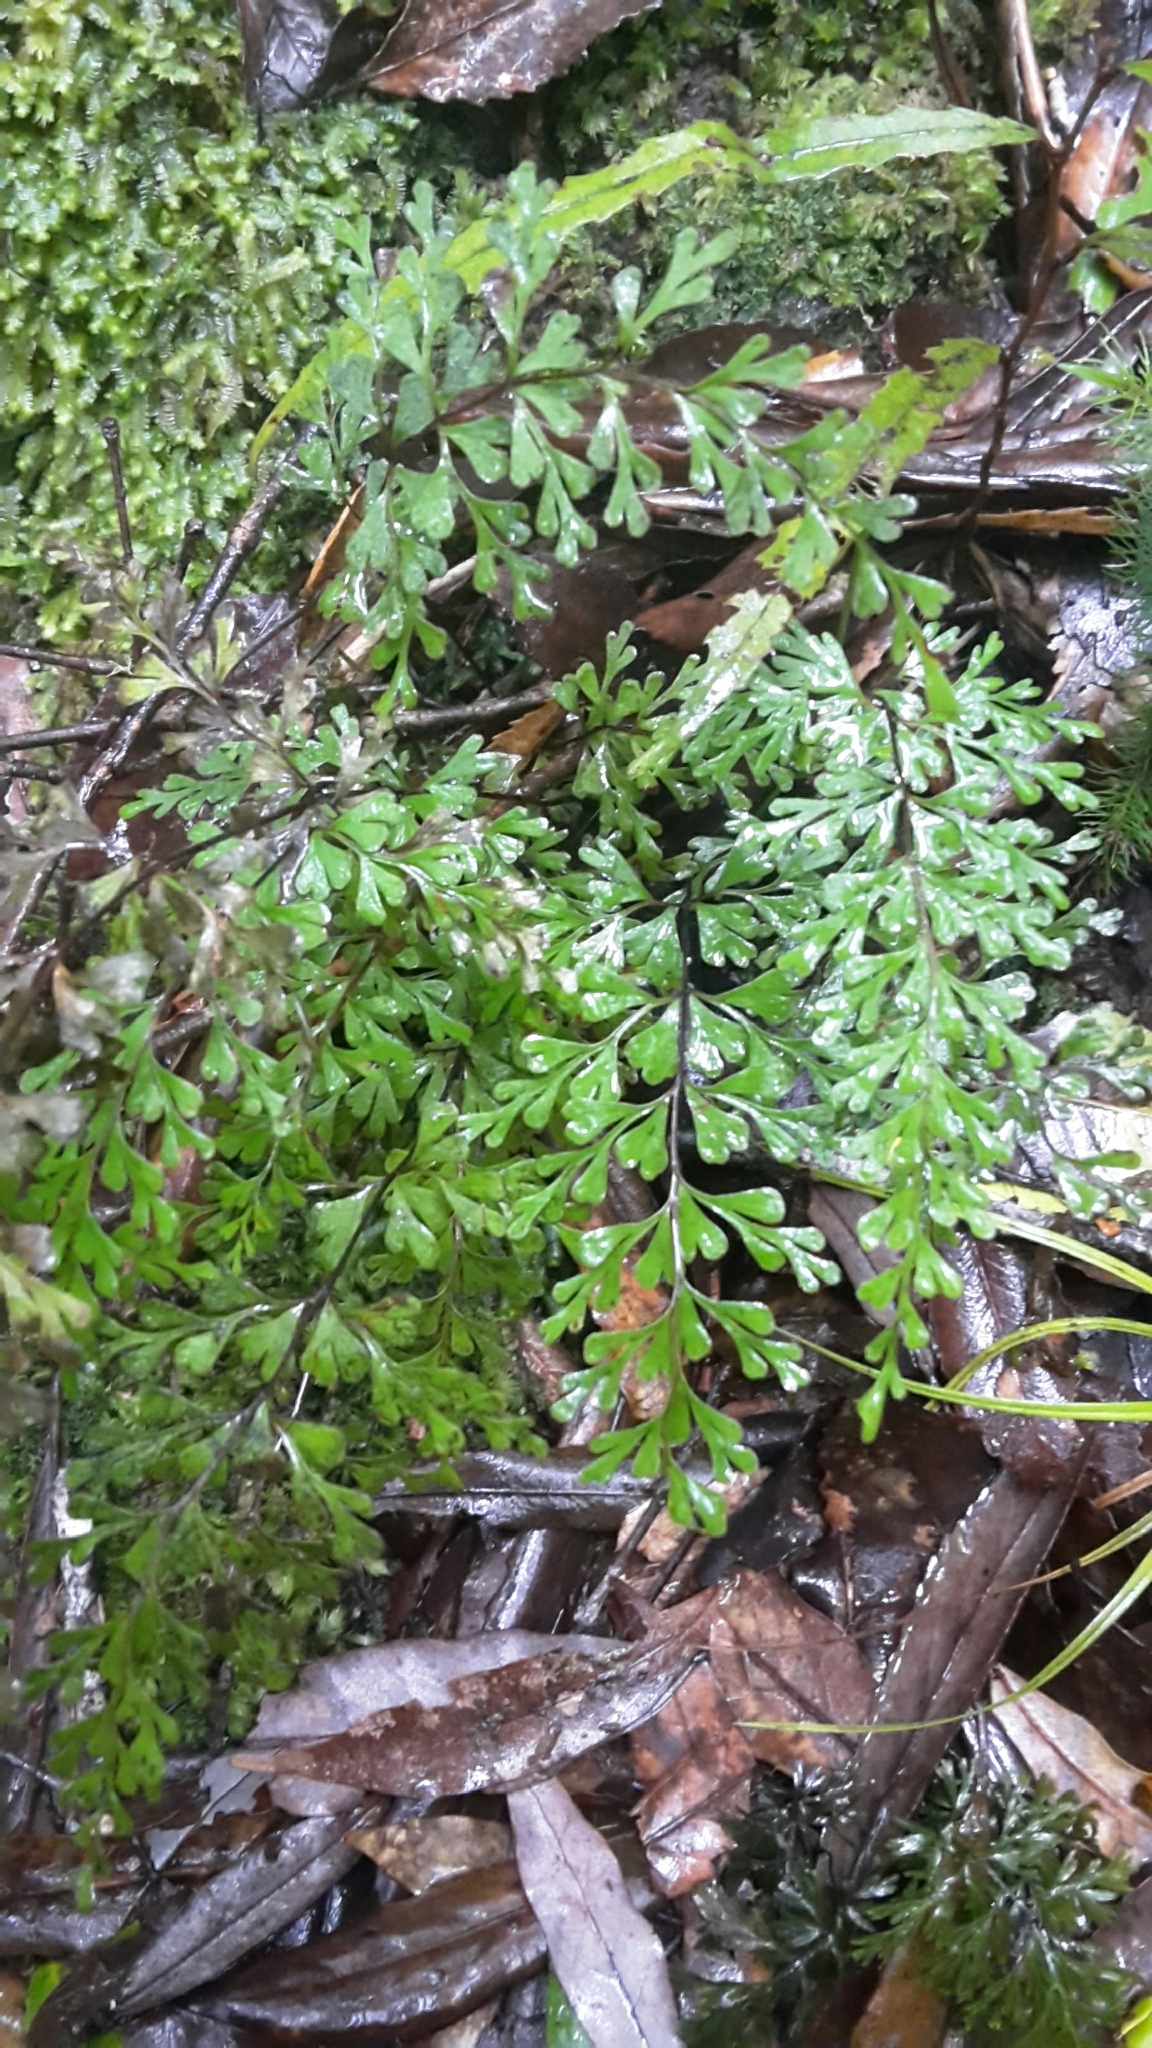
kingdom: Plantae
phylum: Tracheophyta
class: Polypodiopsida
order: Polypodiales
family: Lindsaeaceae
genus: Lindsaea
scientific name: Lindsaea trichomanoides
